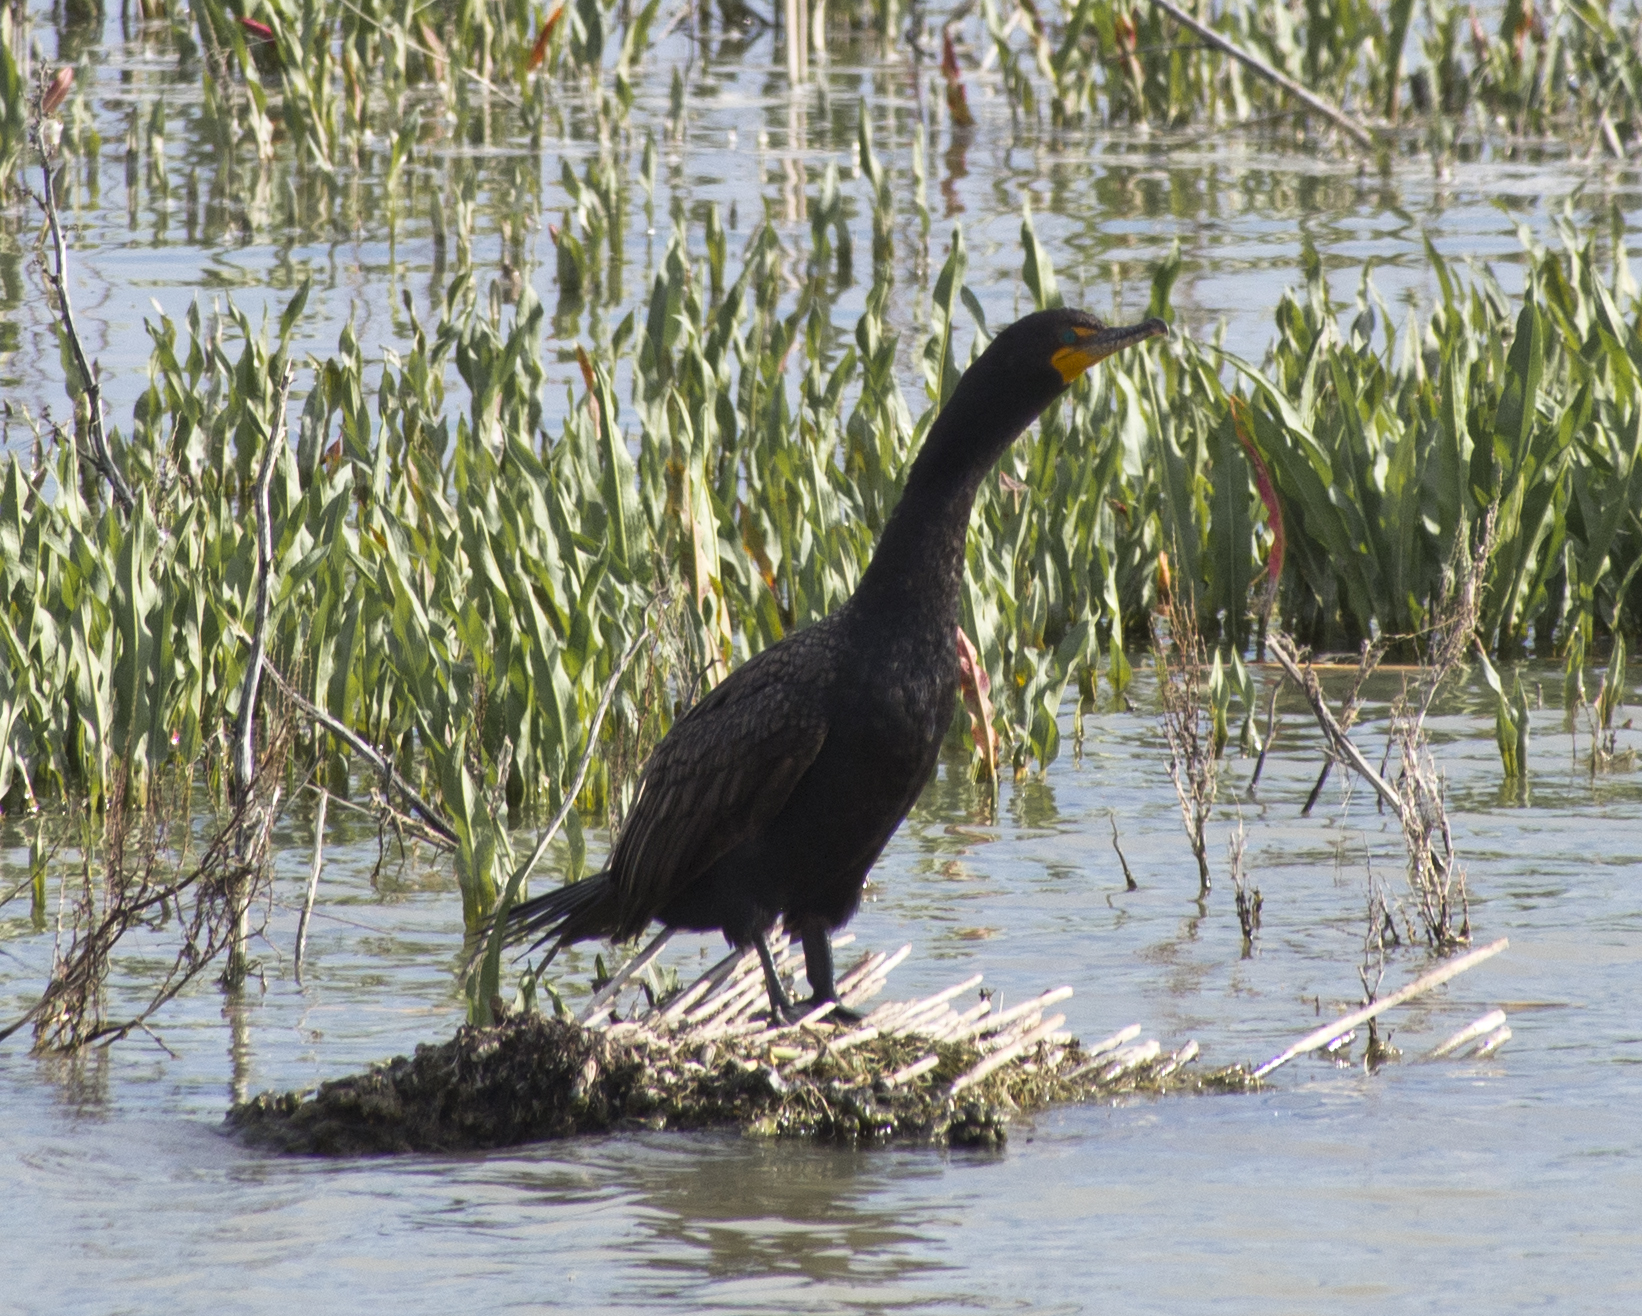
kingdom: Animalia
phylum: Chordata
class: Aves
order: Suliformes
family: Phalacrocoracidae
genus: Phalacrocorax
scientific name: Phalacrocorax auritus
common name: Double-crested cormorant
